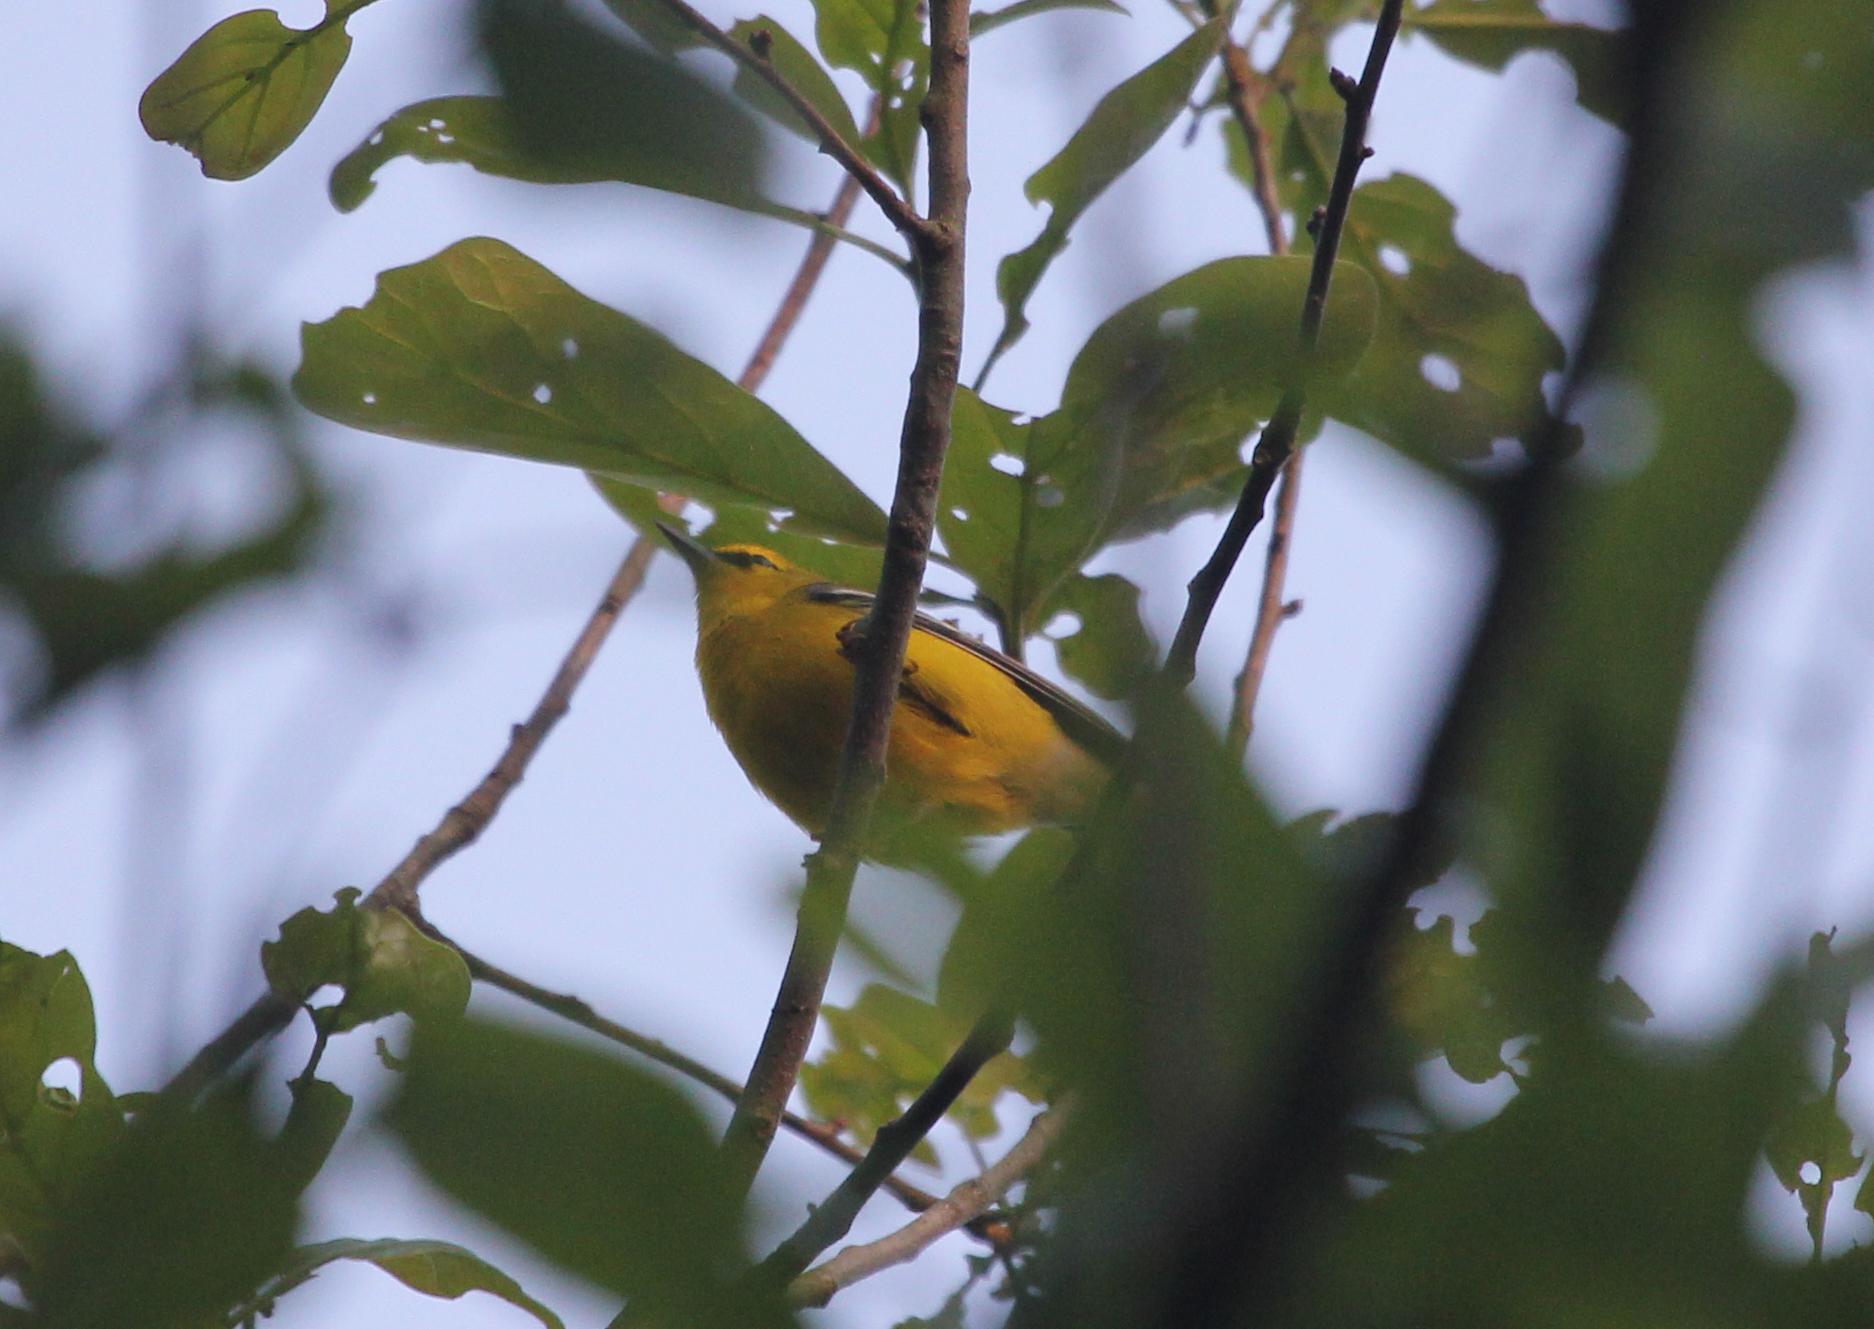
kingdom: Animalia
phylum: Chordata
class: Aves
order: Passeriformes
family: Parulidae
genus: Vermivora
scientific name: Vermivora cyanoptera
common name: Blue-winged warbler
